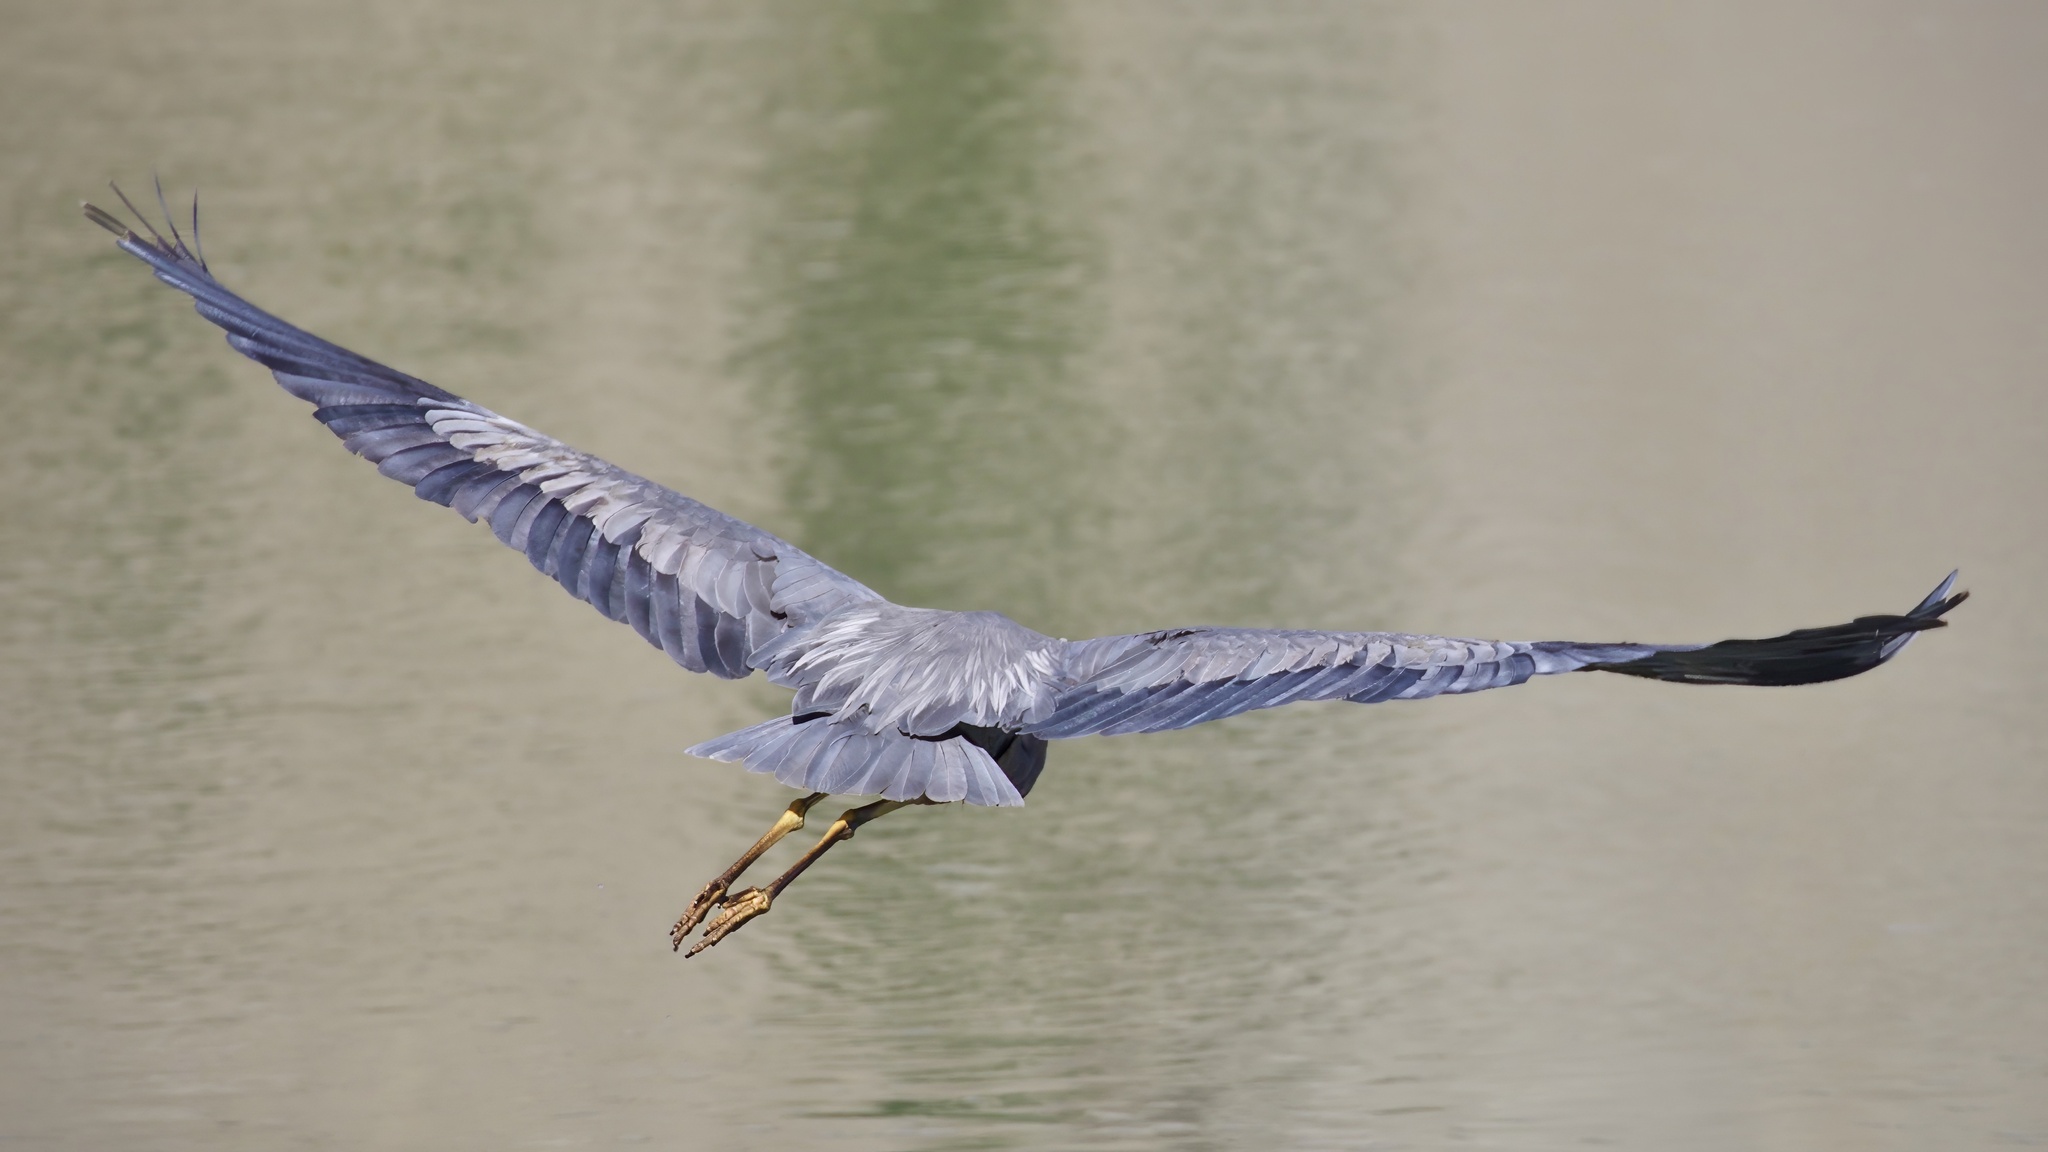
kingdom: Animalia
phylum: Chordata
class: Aves
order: Pelecaniformes
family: Ardeidae
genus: Ardea
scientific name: Ardea herodias
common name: Great blue heron
